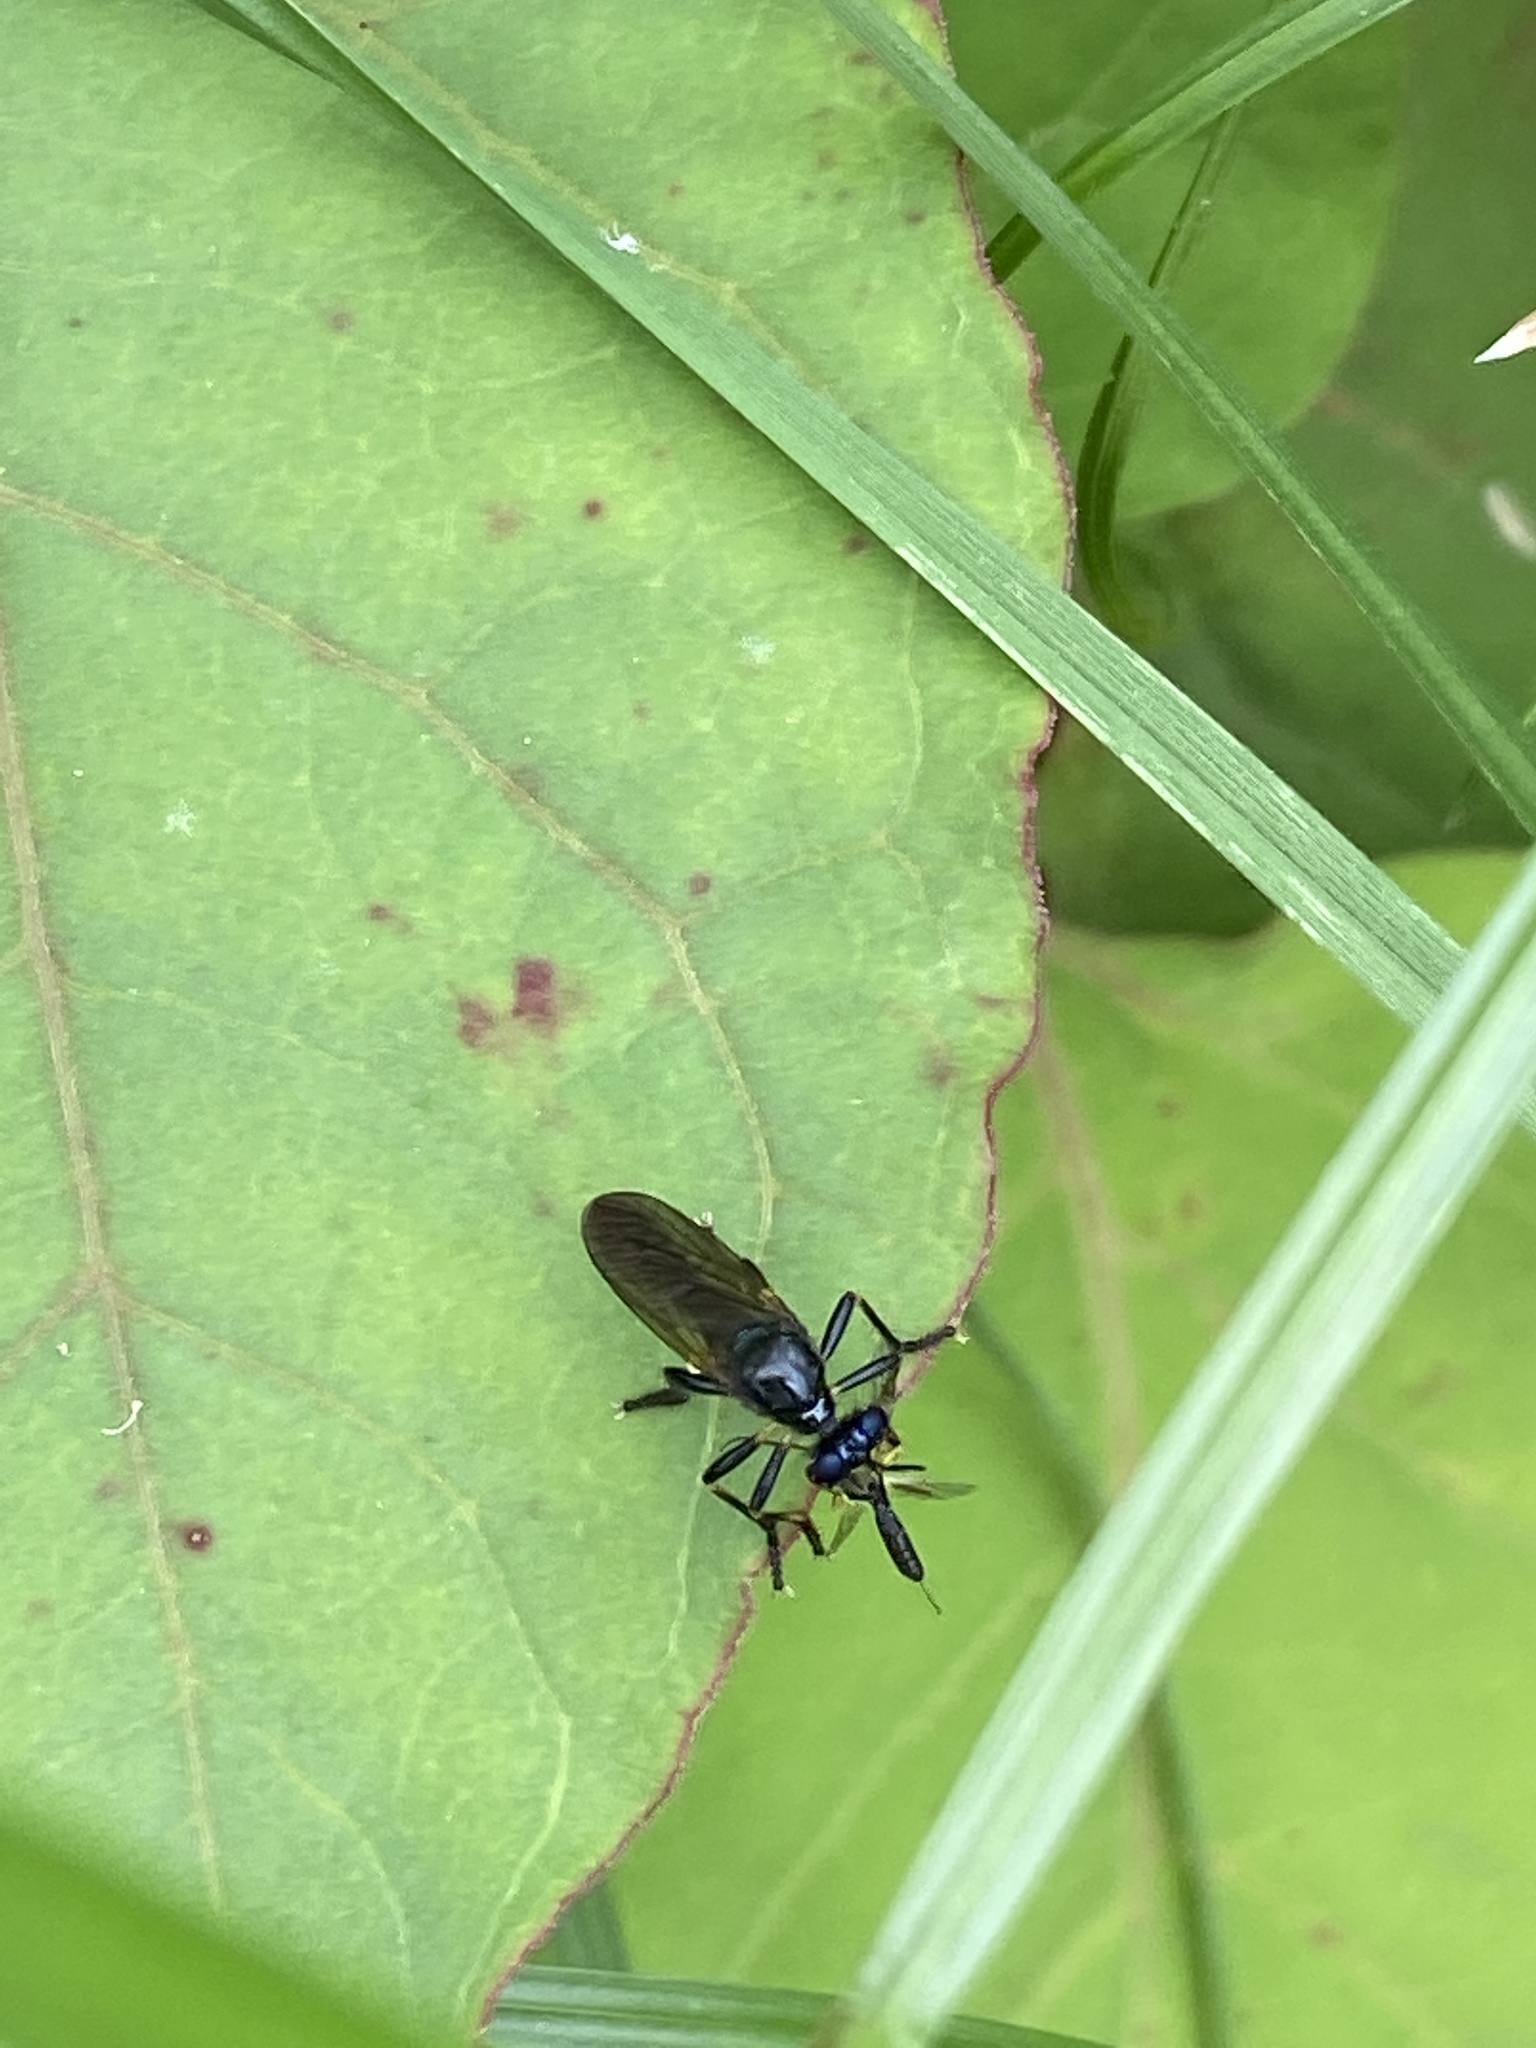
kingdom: Animalia
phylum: Arthropoda
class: Insecta
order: Diptera
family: Asilidae
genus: Dioctria
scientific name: Dioctria cothurnata
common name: Scarce red-legged robberfly
